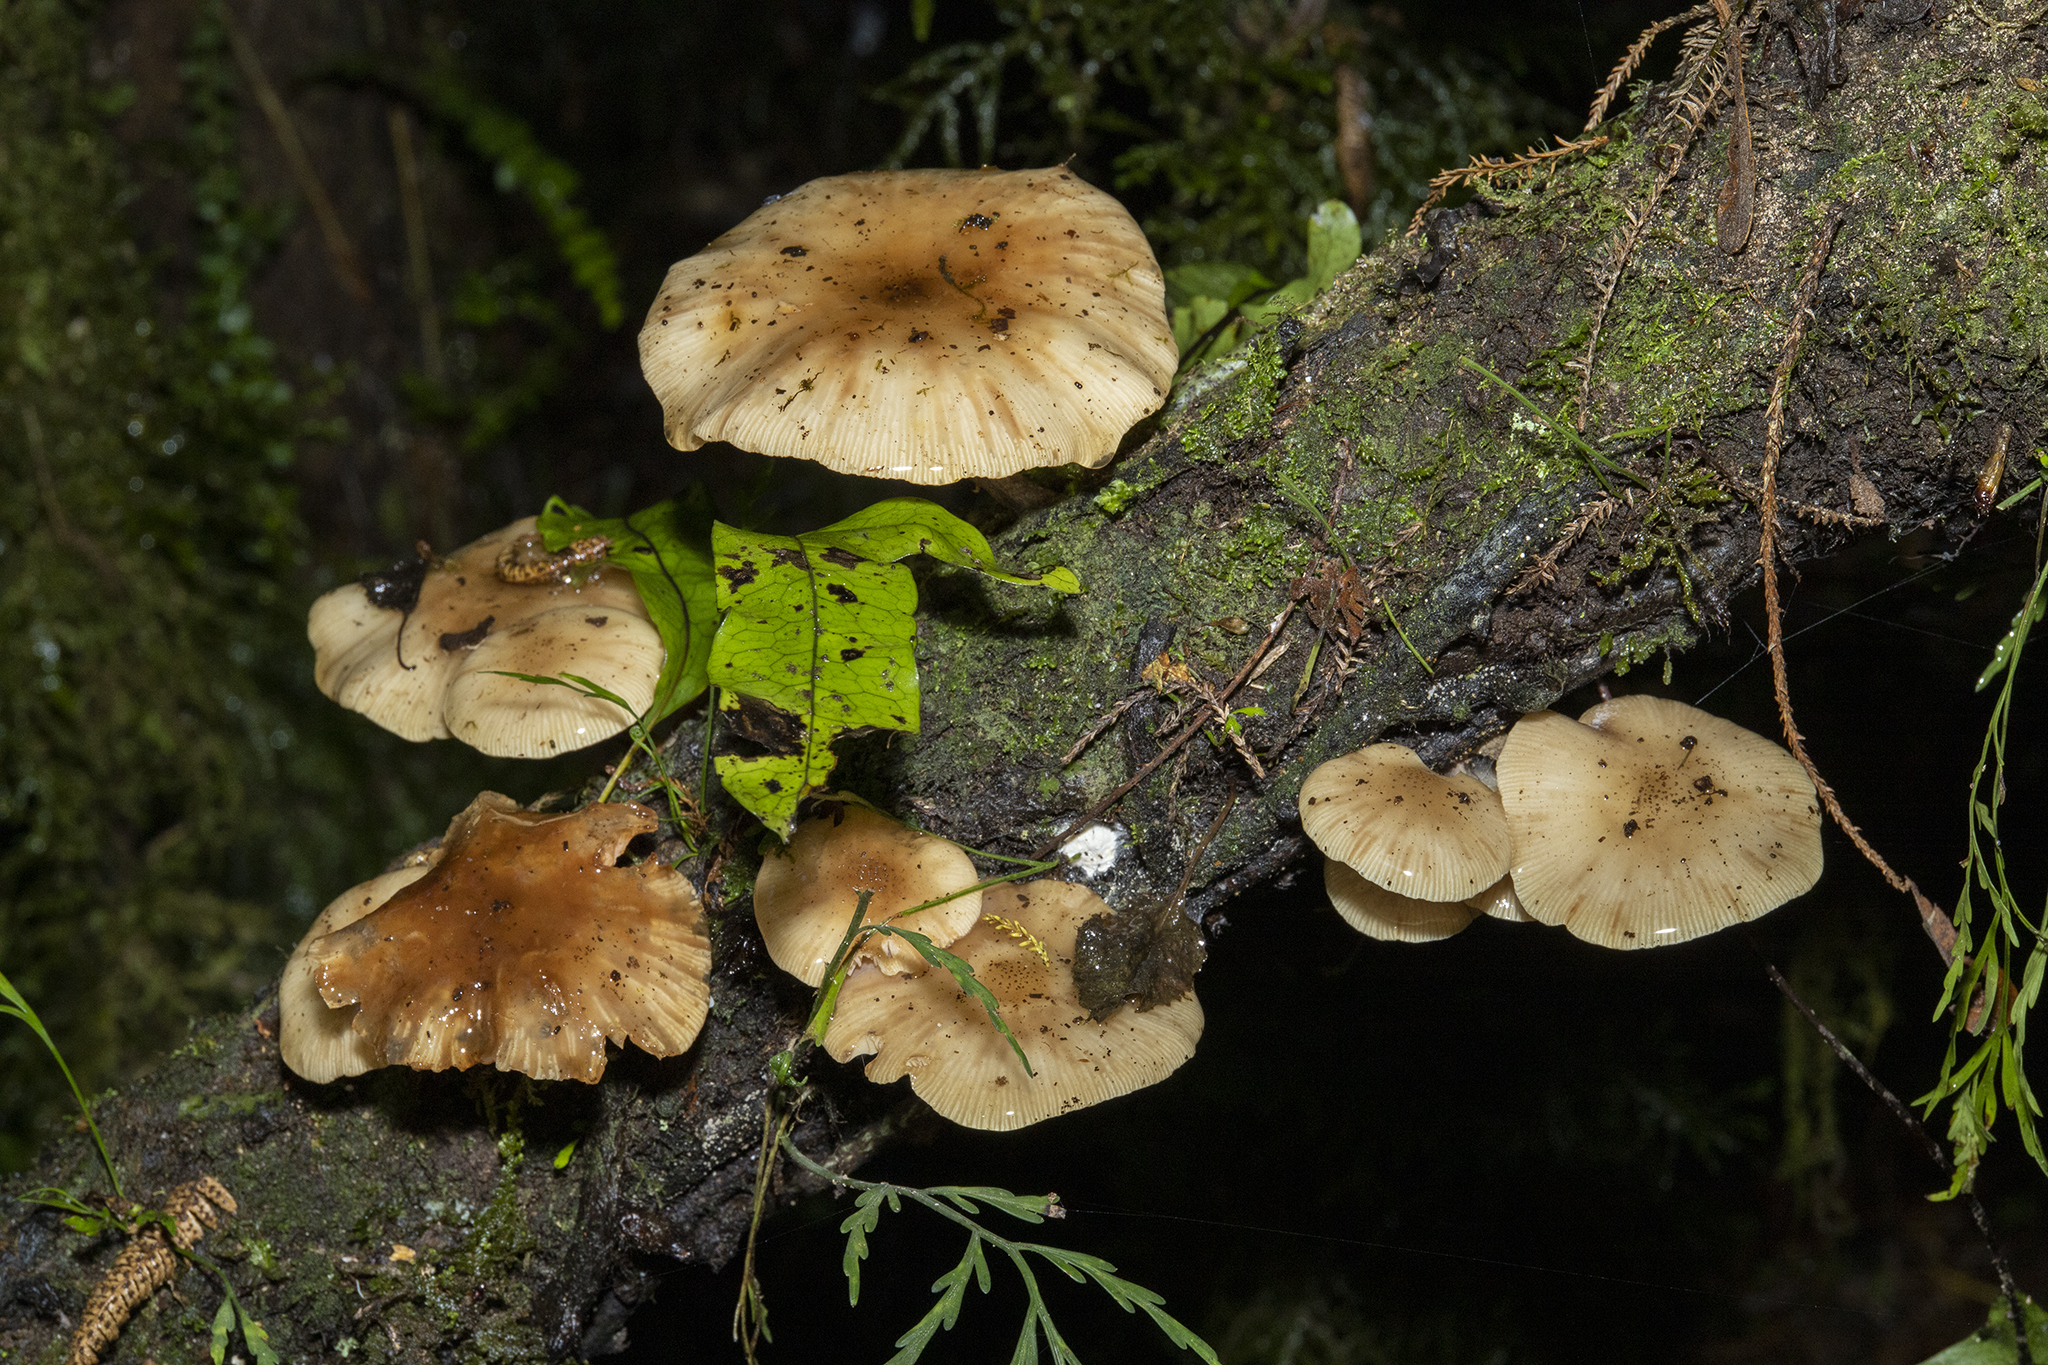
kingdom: Fungi
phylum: Basidiomycota
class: Agaricomycetes
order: Agaricales
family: Physalacriaceae
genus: Armillaria
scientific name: Armillaria novae-zelandiae
